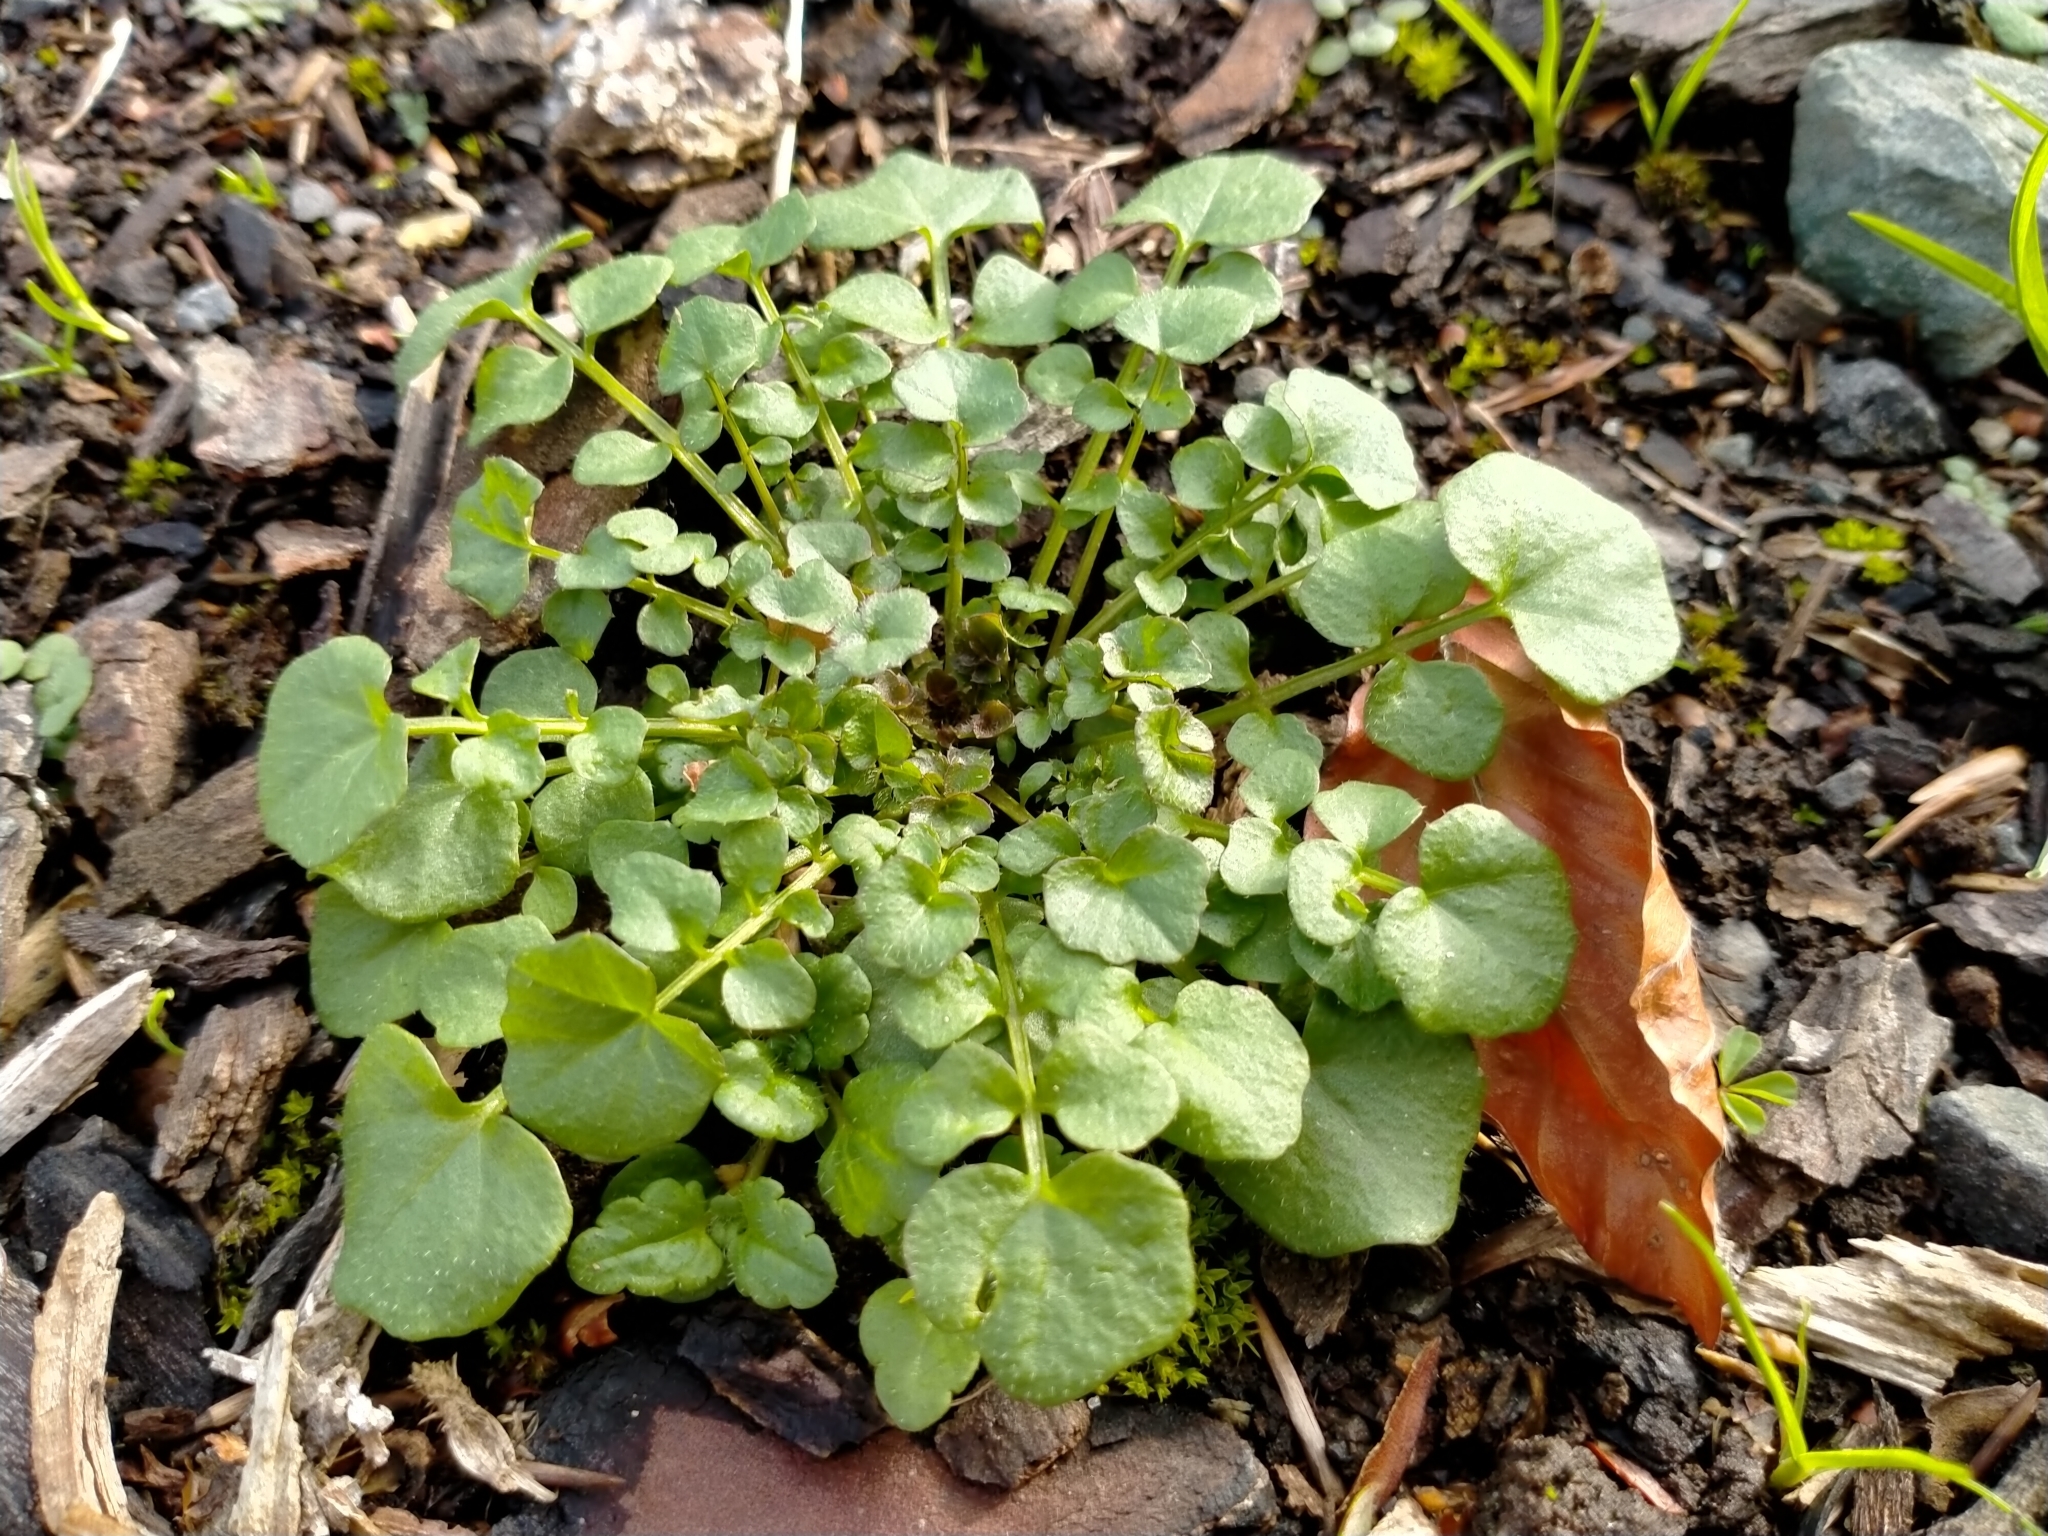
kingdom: Plantae
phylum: Tracheophyta
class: Magnoliopsida
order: Brassicales
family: Brassicaceae
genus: Cardamine
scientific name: Cardamine hirsuta
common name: Hairy bittercress
